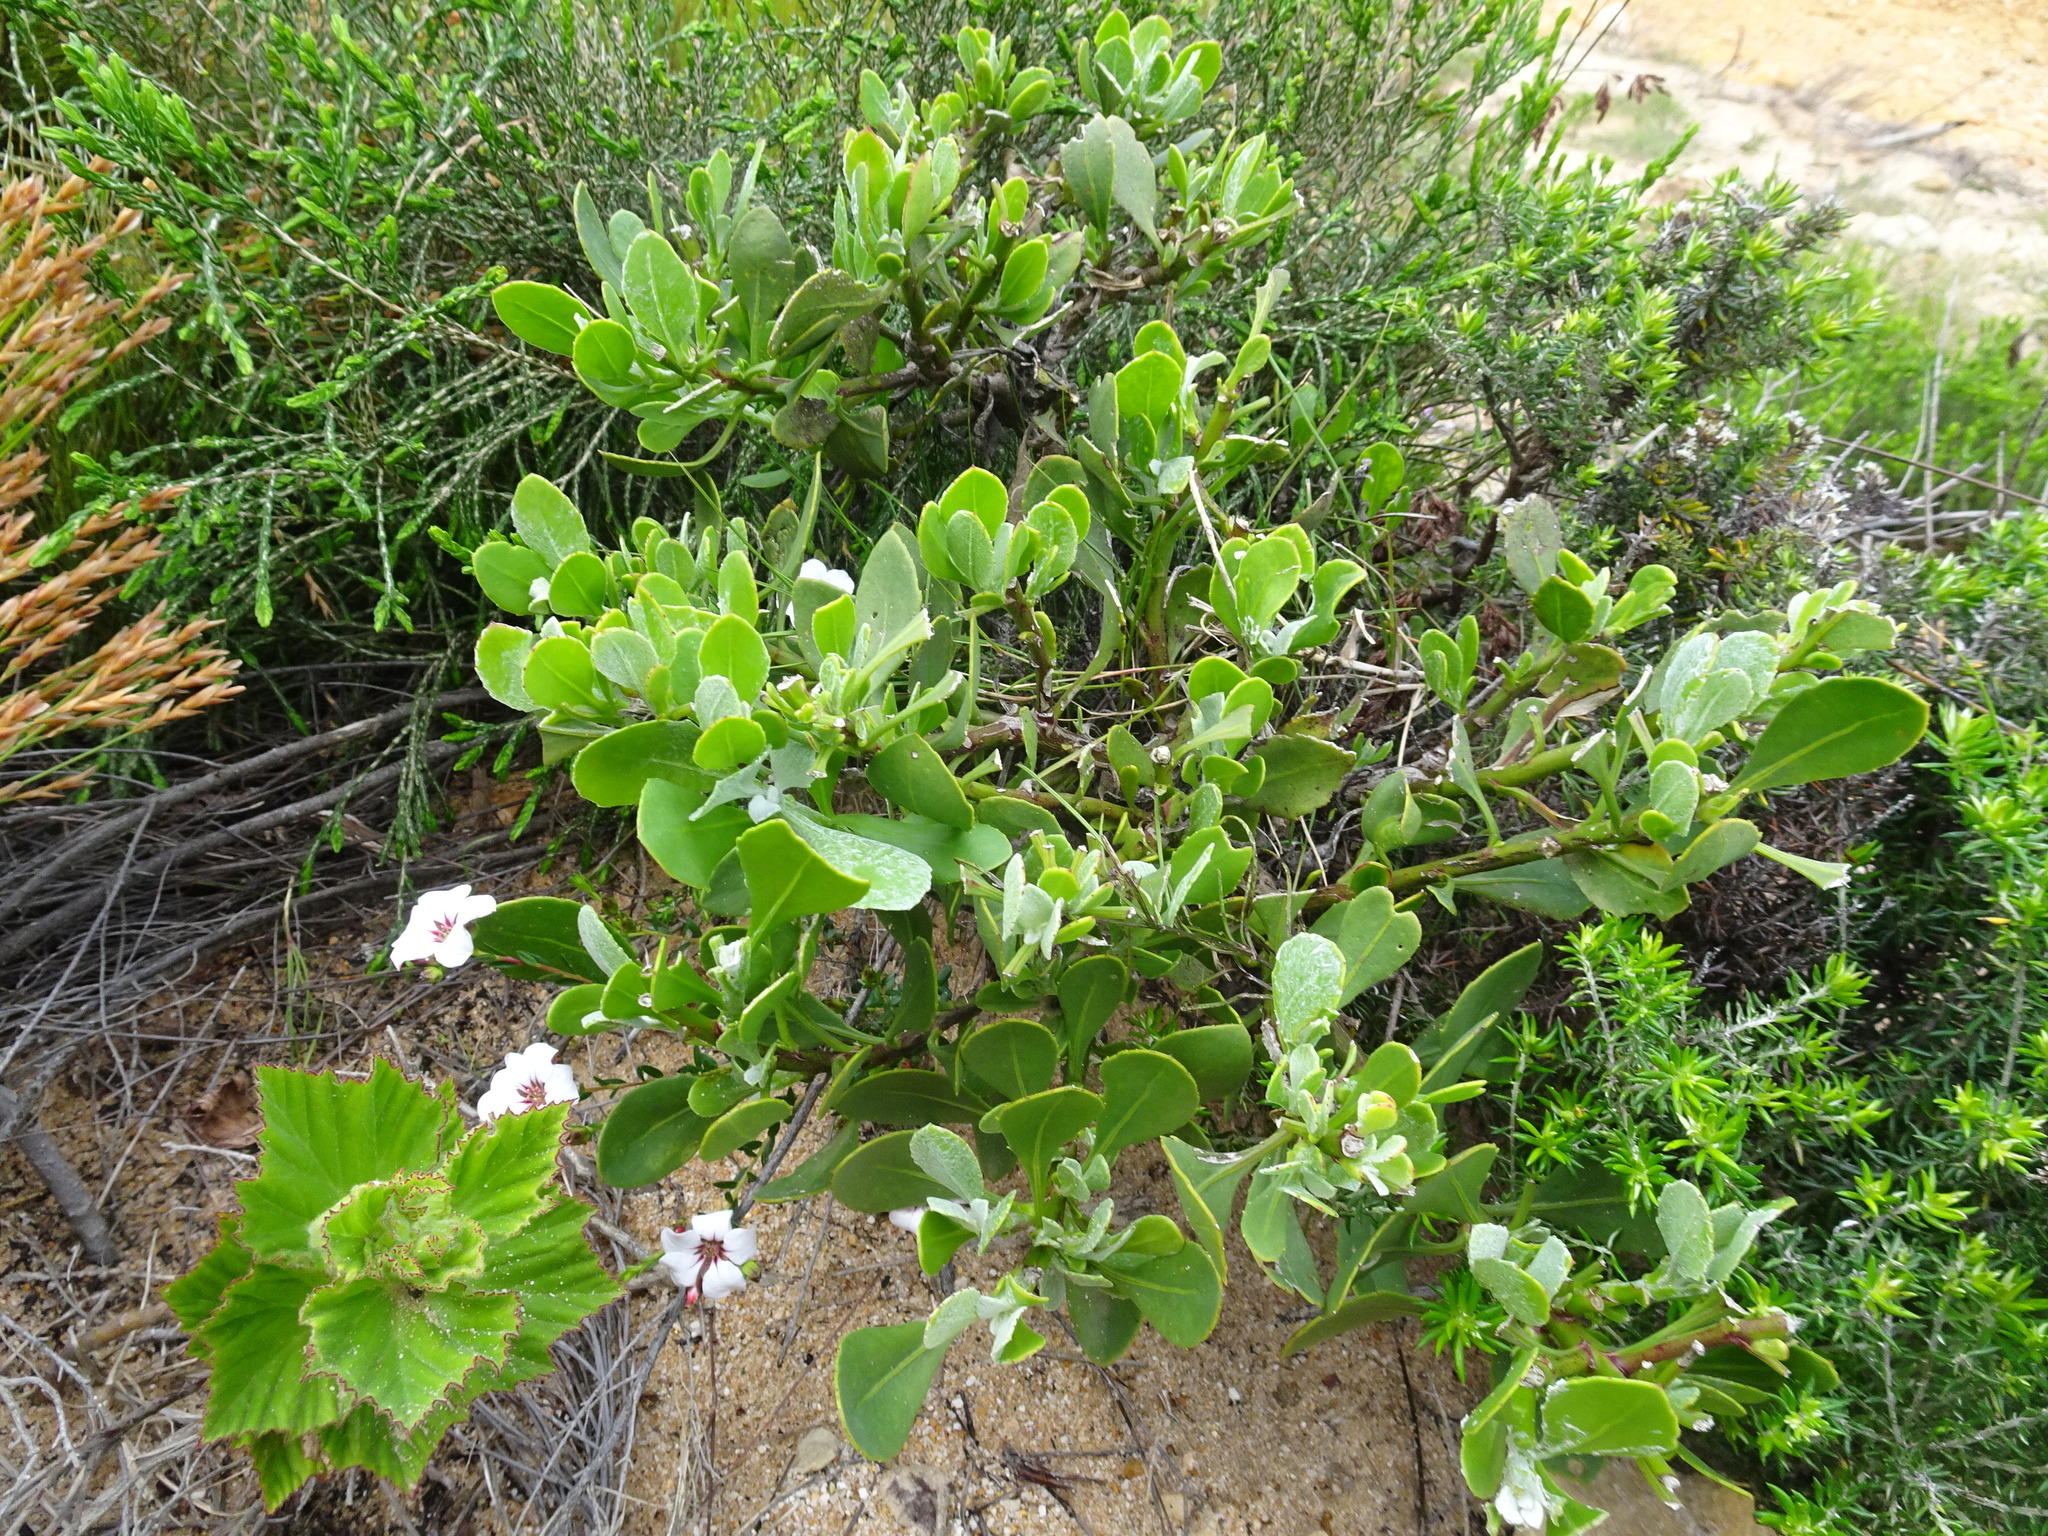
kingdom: Plantae
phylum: Tracheophyta
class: Magnoliopsida
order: Asterales
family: Asteraceae
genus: Osteospermum
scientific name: Osteospermum moniliferum
